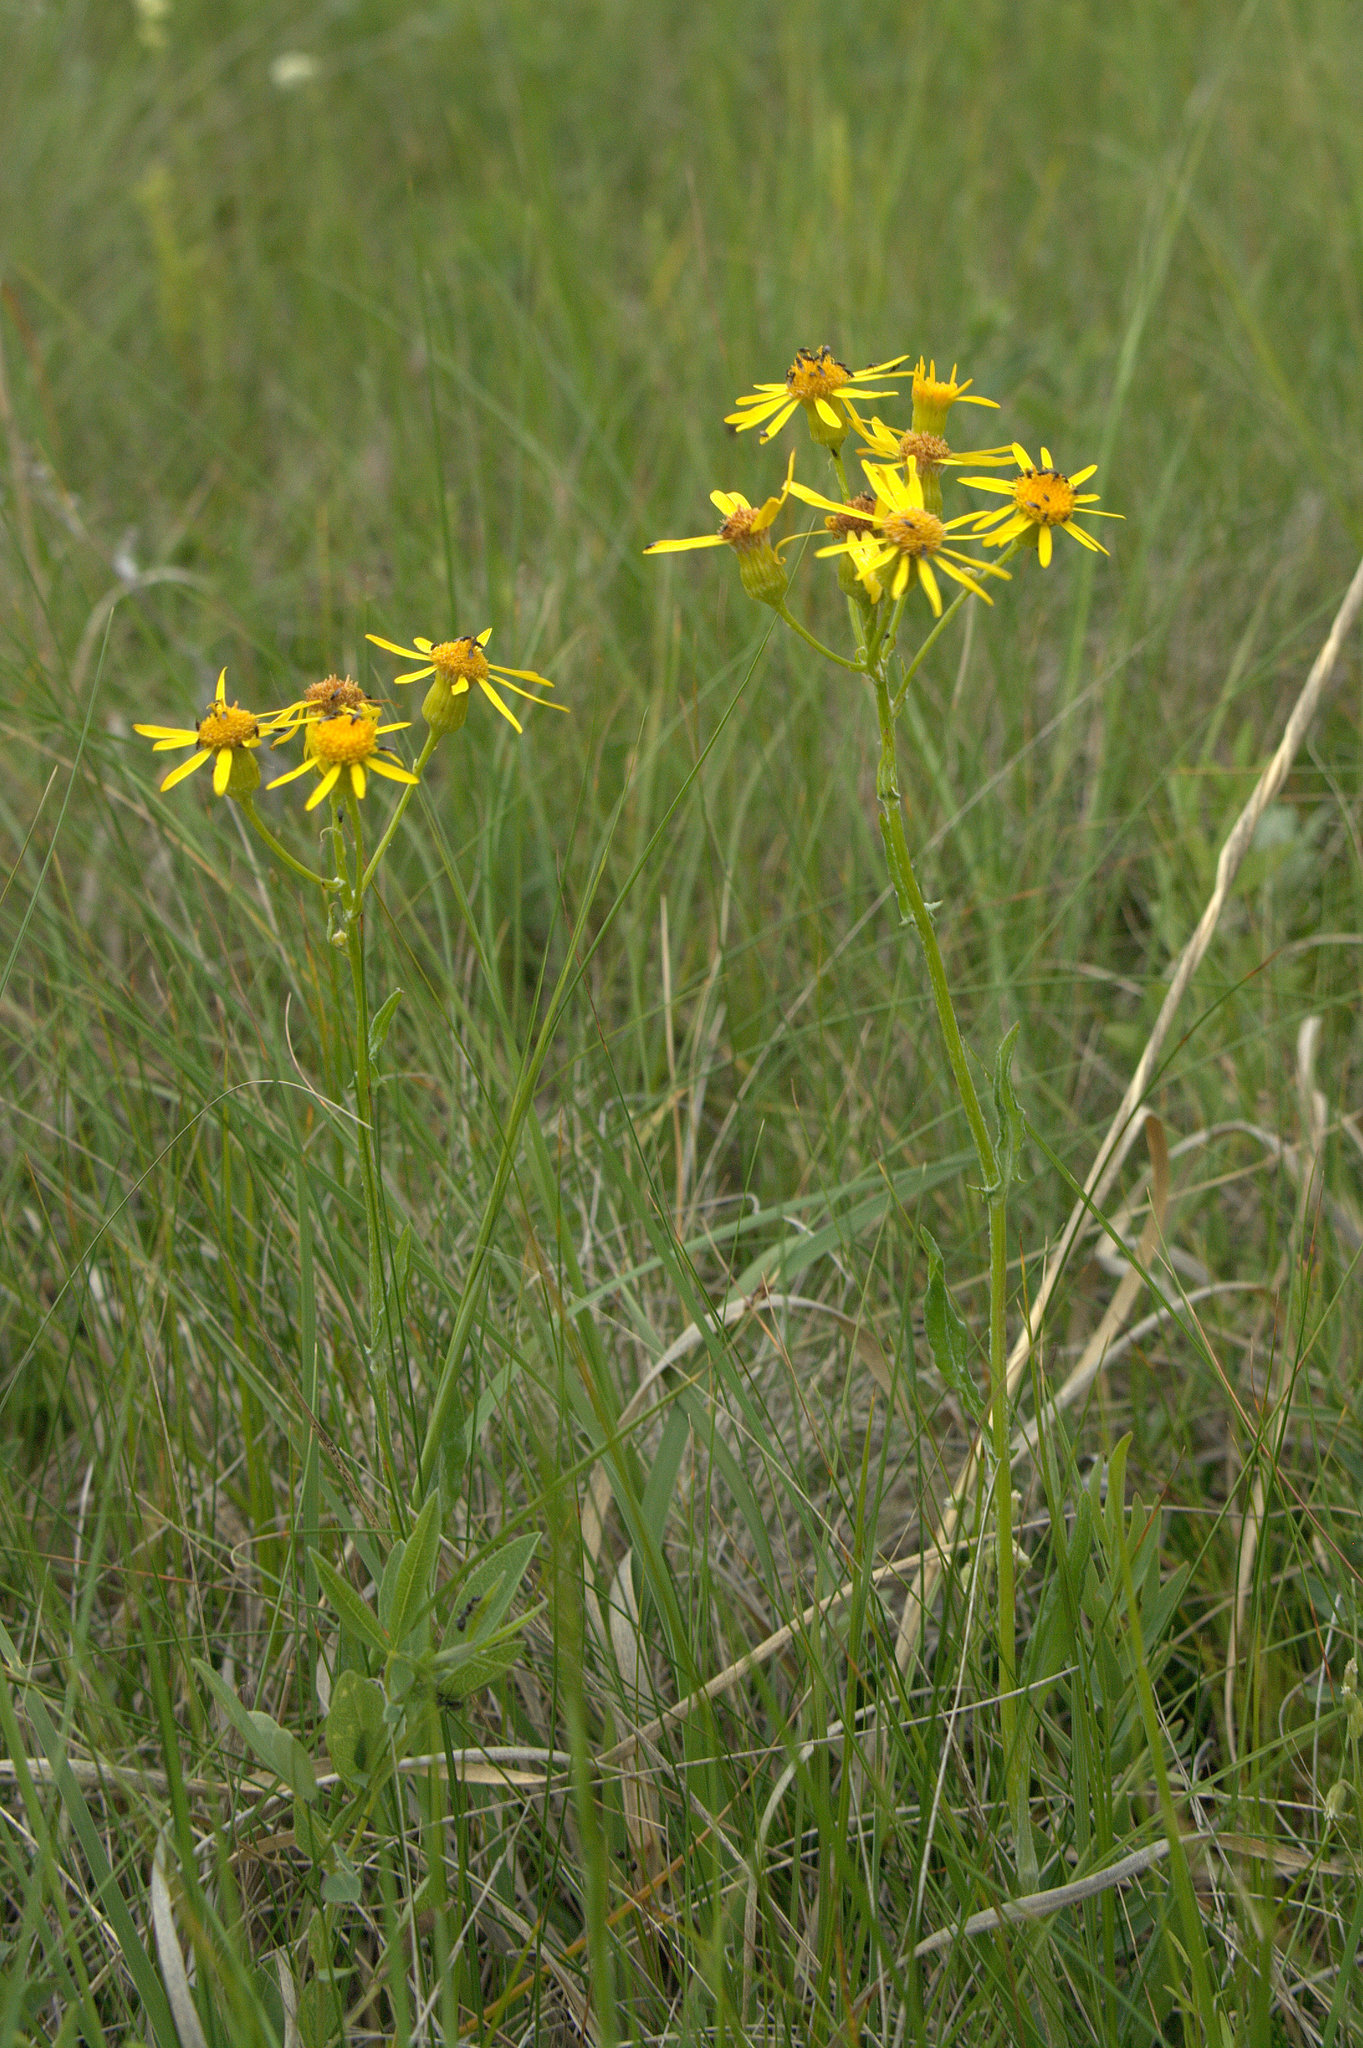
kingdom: Plantae
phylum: Tracheophyta
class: Magnoliopsida
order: Asterales
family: Asteraceae
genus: Packera
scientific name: Packera cana
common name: Woolly groundsel
